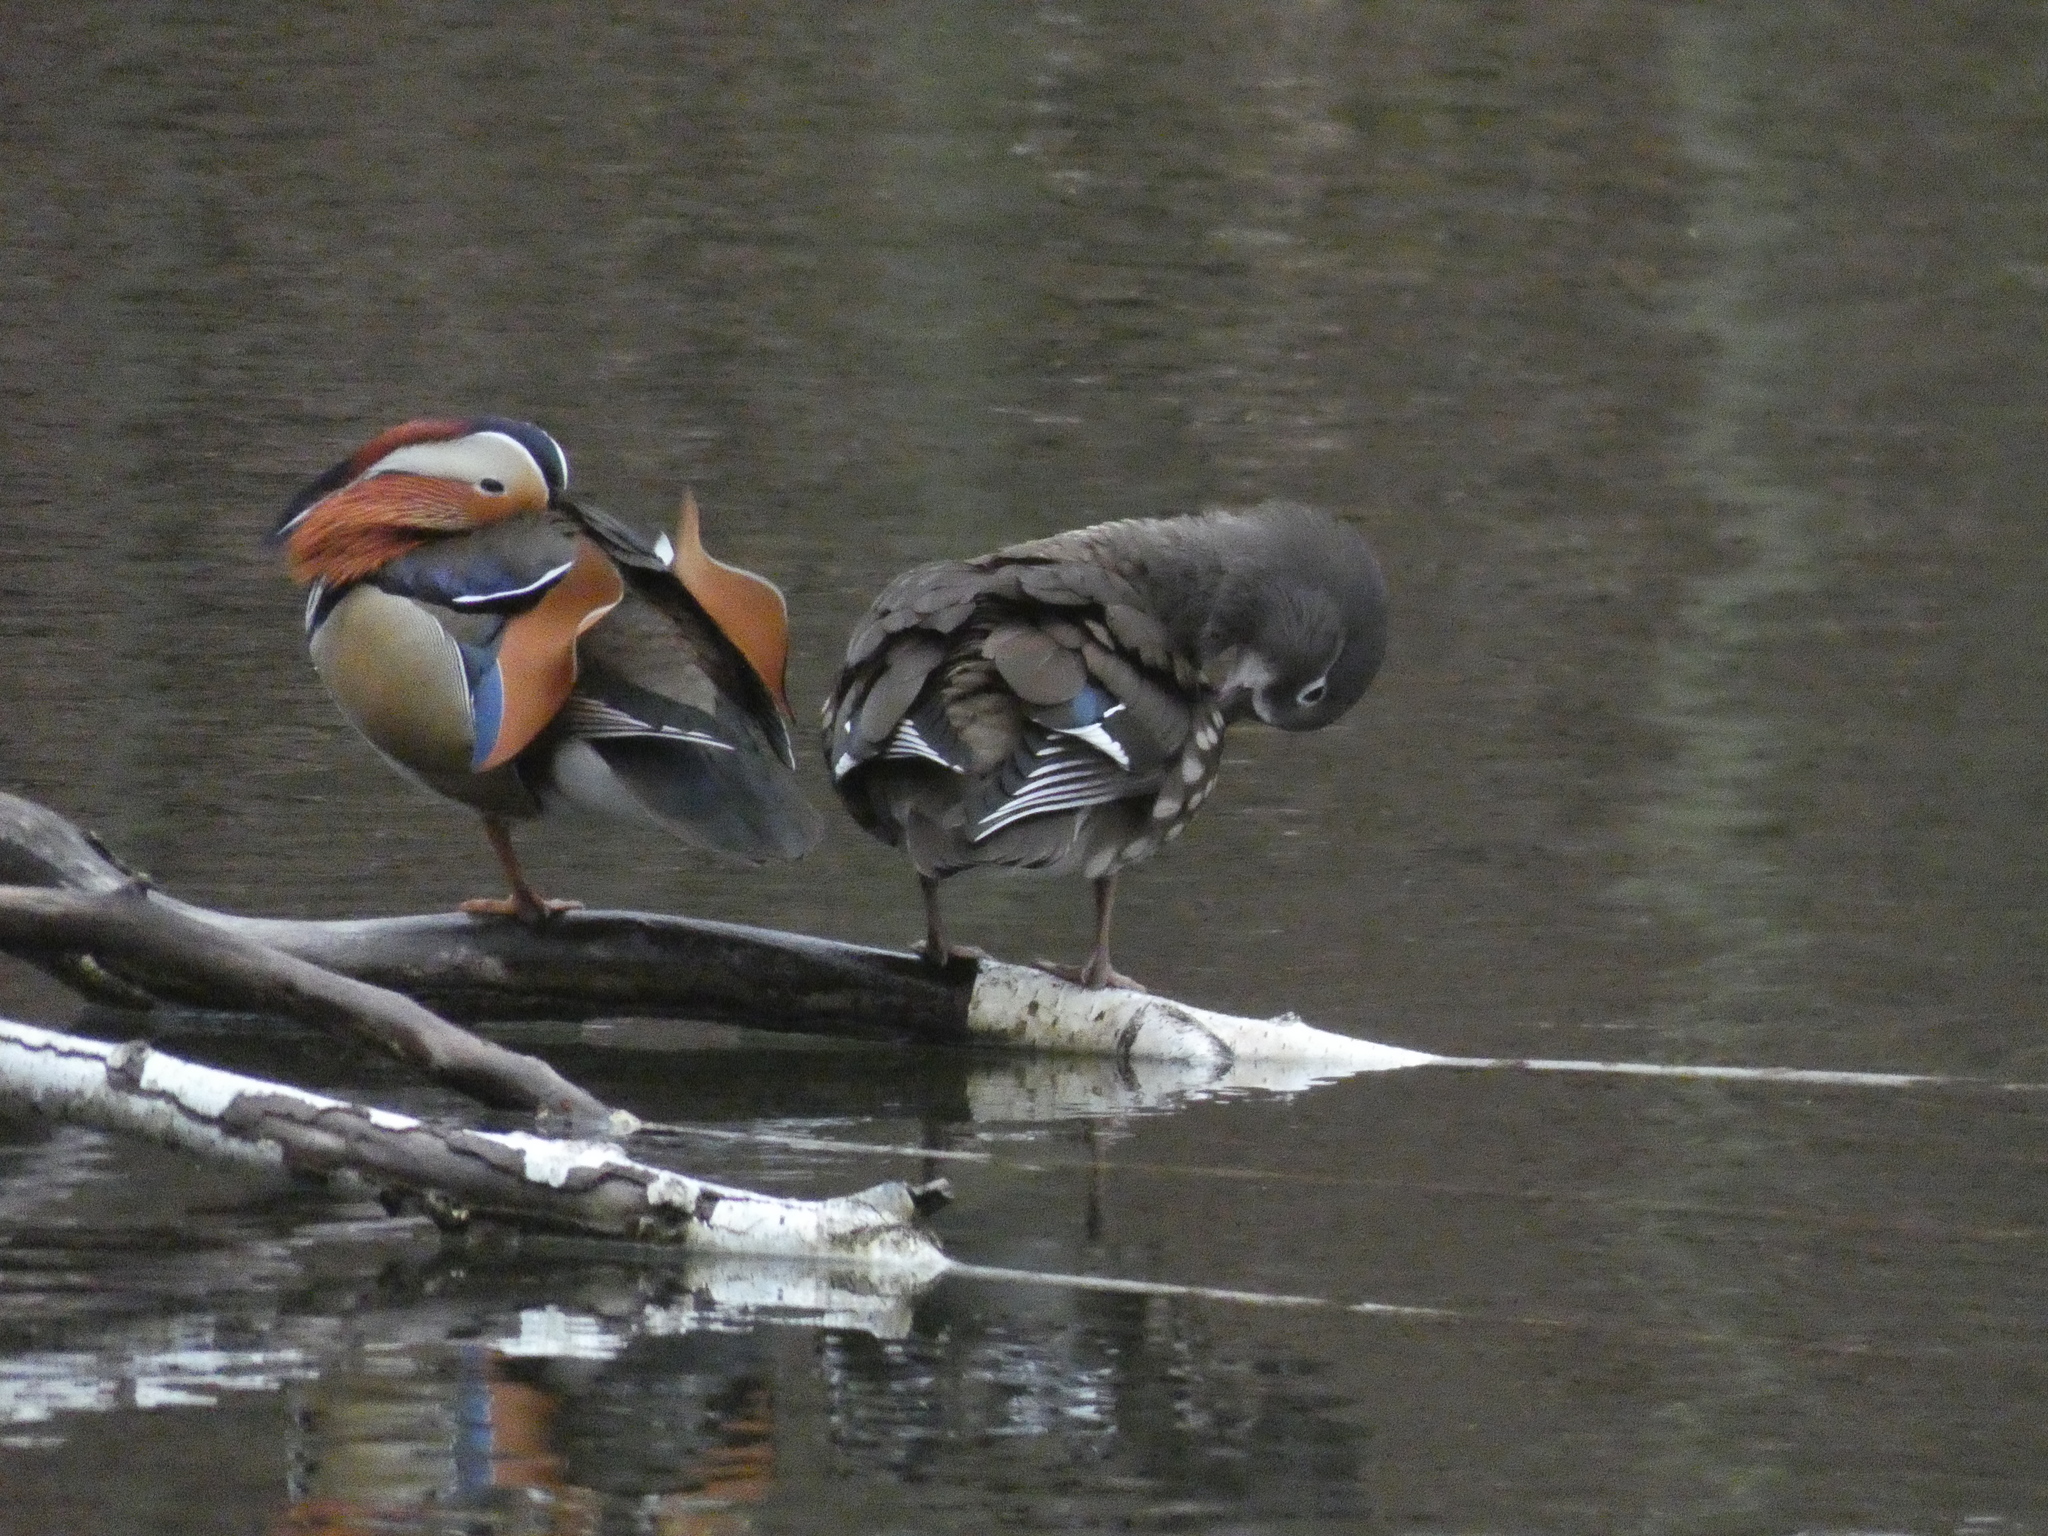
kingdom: Animalia
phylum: Chordata
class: Aves
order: Anseriformes
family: Anatidae
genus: Aix
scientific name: Aix galericulata
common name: Mandarin duck
